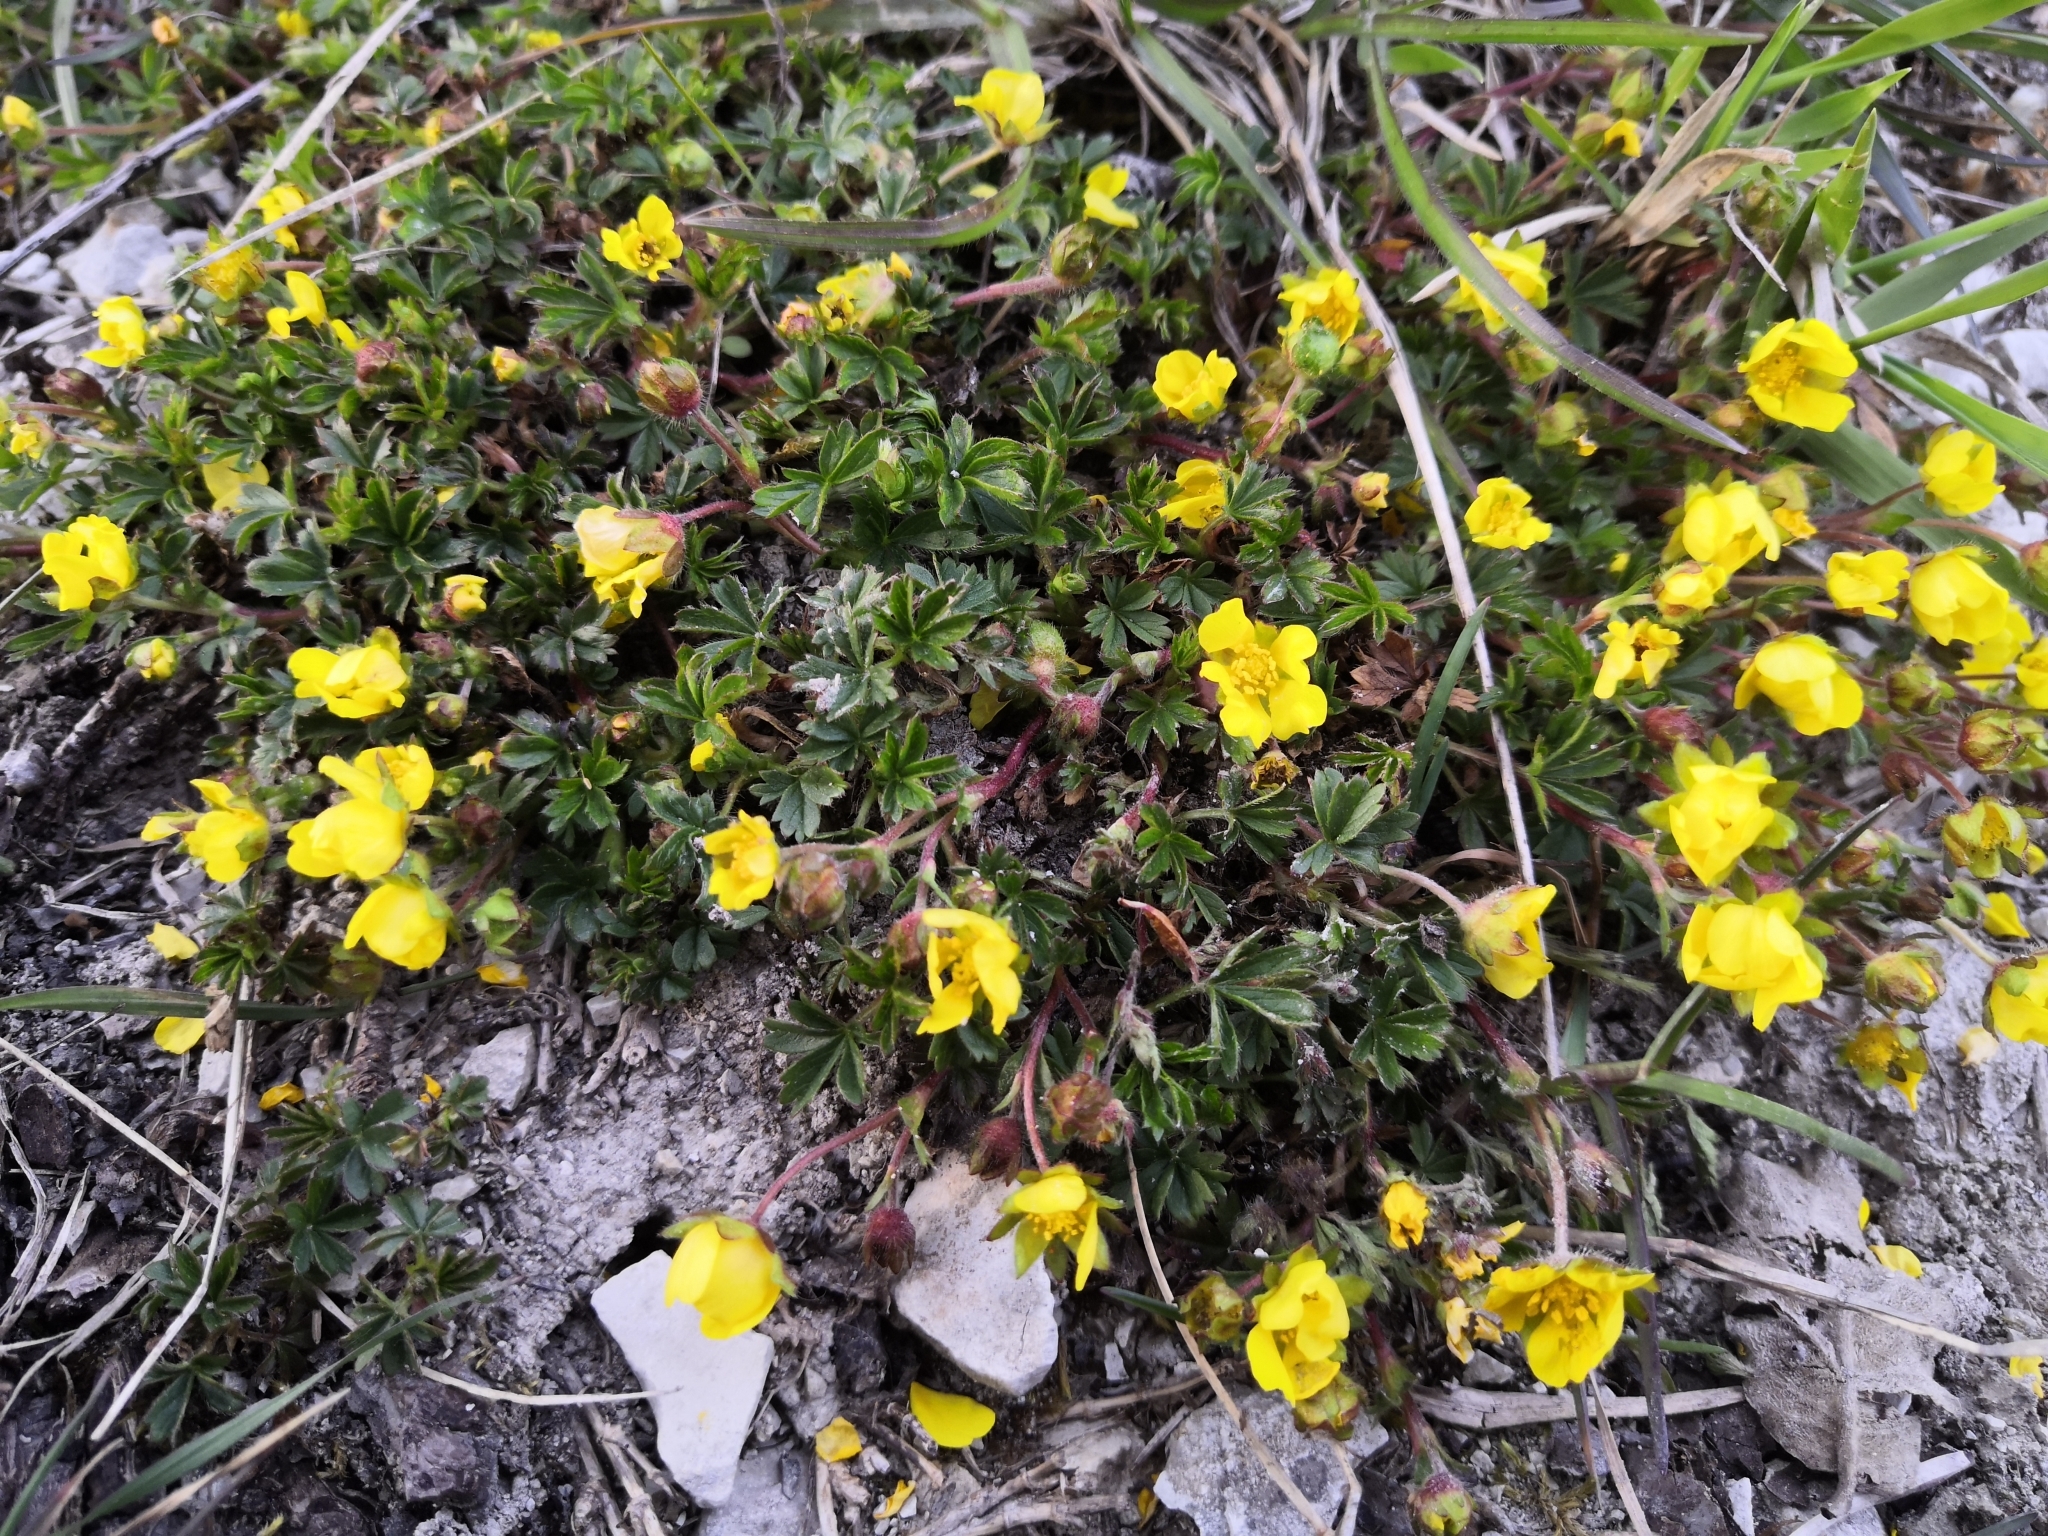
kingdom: Plantae
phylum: Tracheophyta
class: Magnoliopsida
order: Rosales
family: Rosaceae
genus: Potentilla
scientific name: Potentilla verna
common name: Spring cinquefoil
